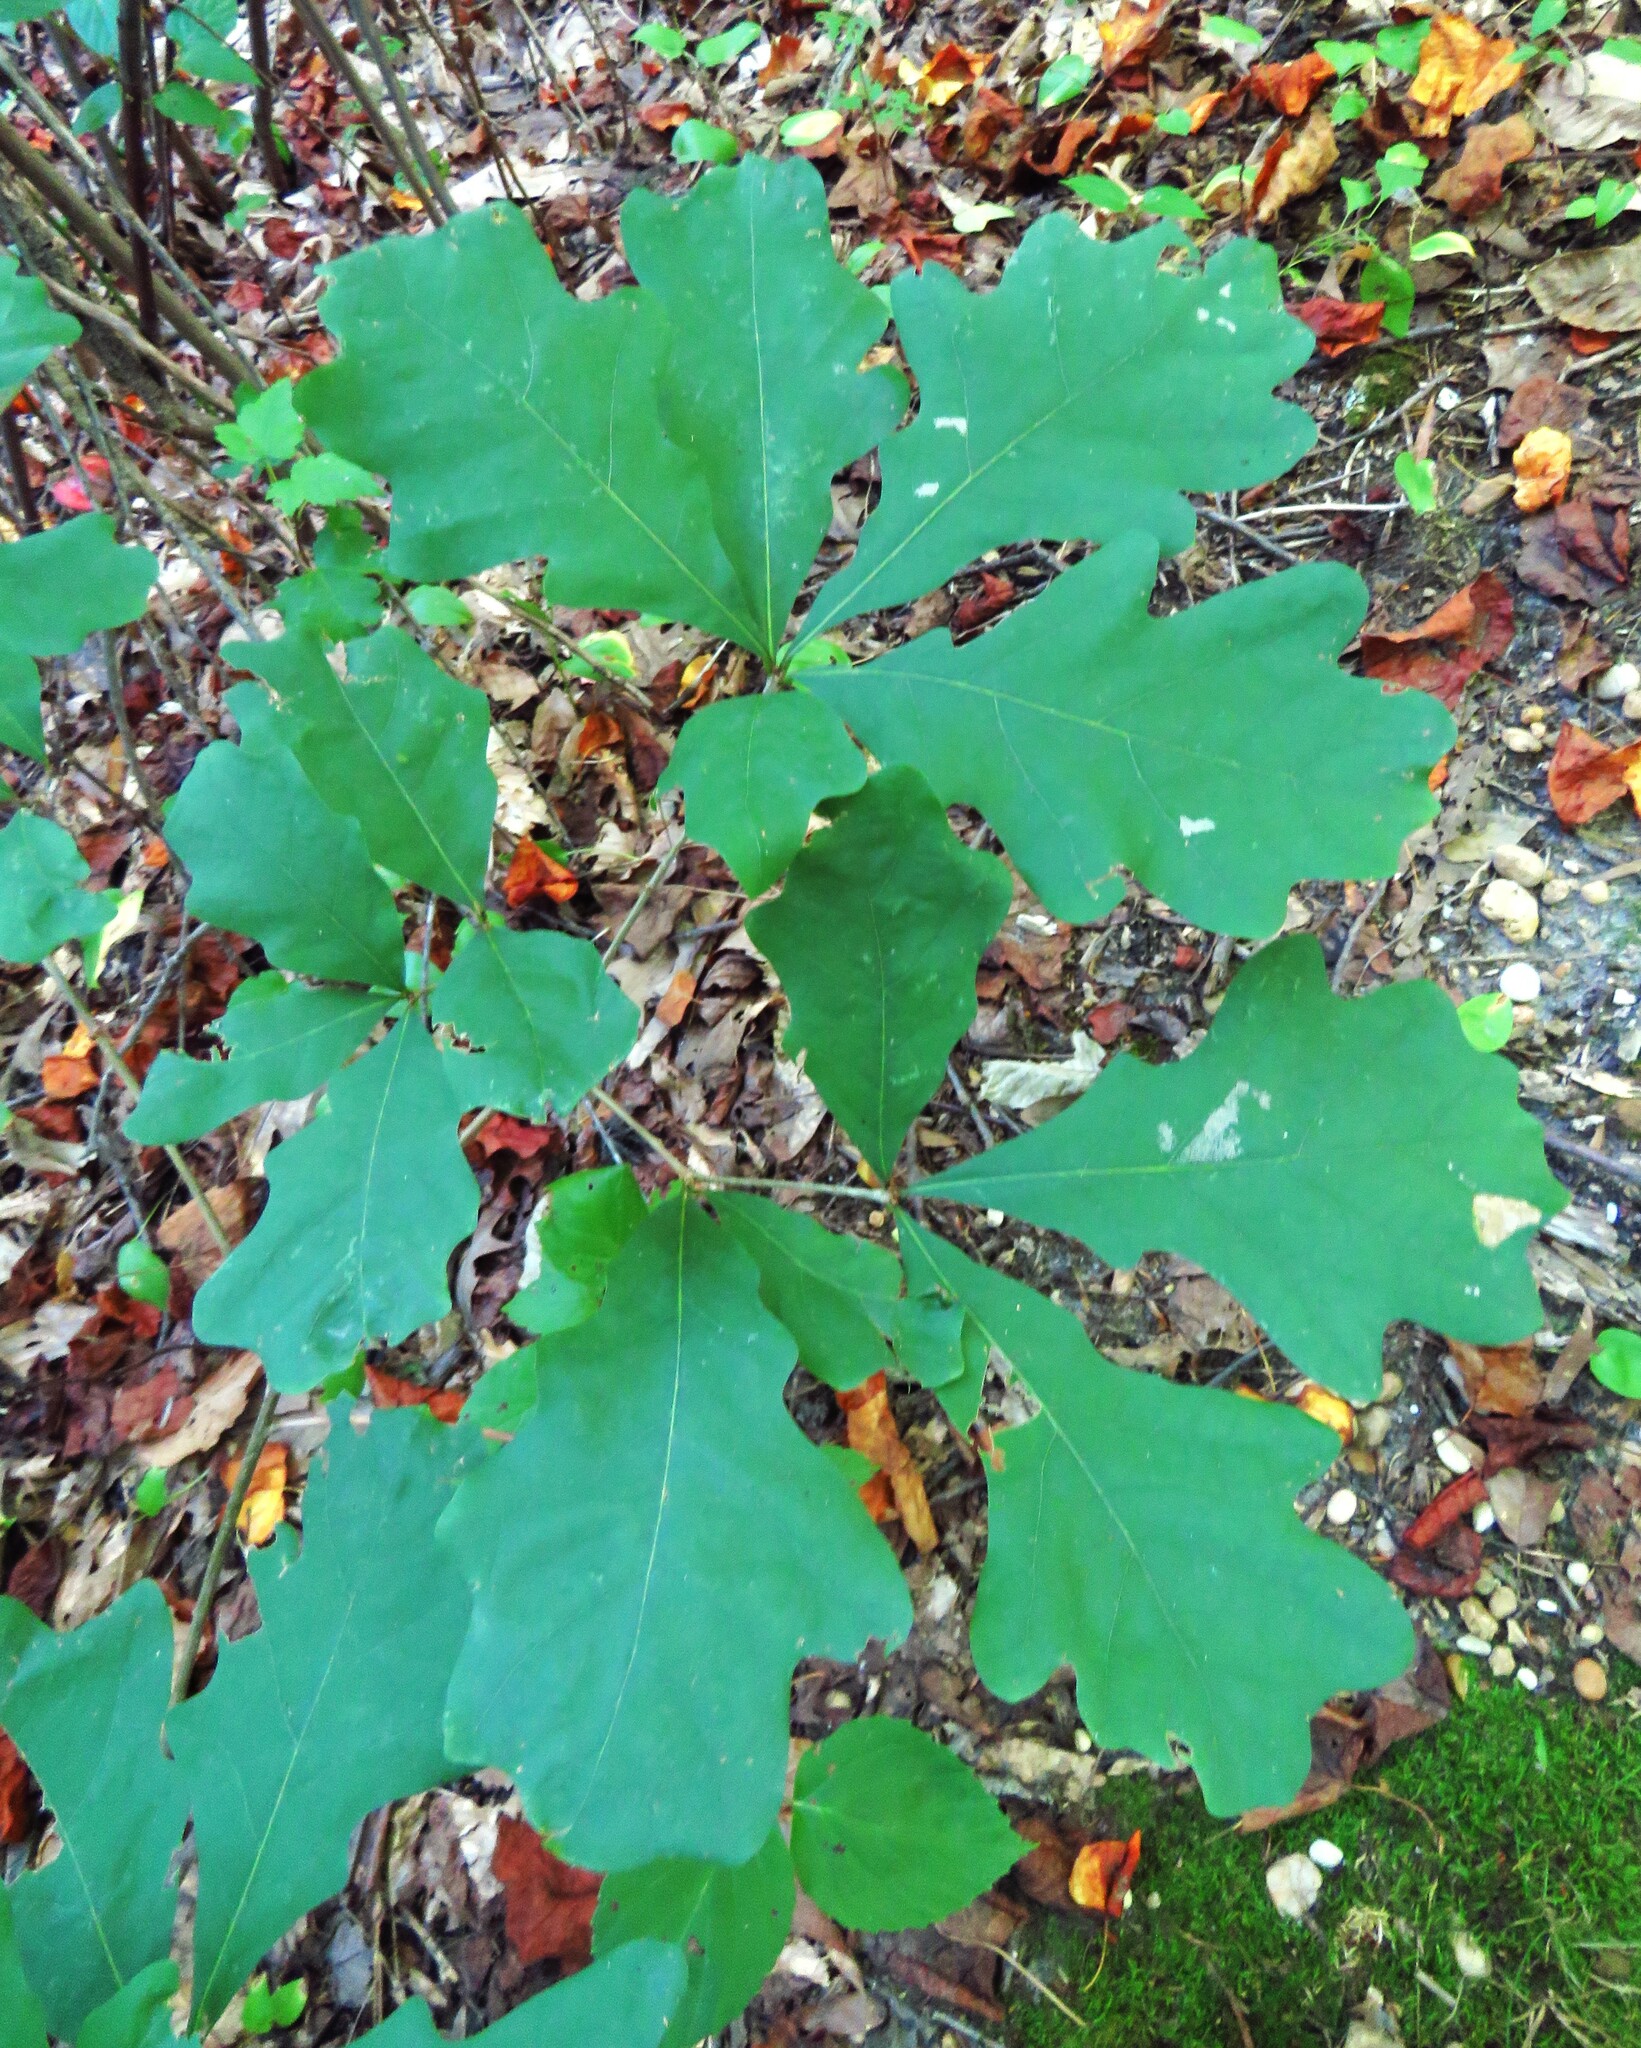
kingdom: Plantae
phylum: Tracheophyta
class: Magnoliopsida
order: Fagales
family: Fagaceae
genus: Quercus
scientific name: Quercus alba
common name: White oak
